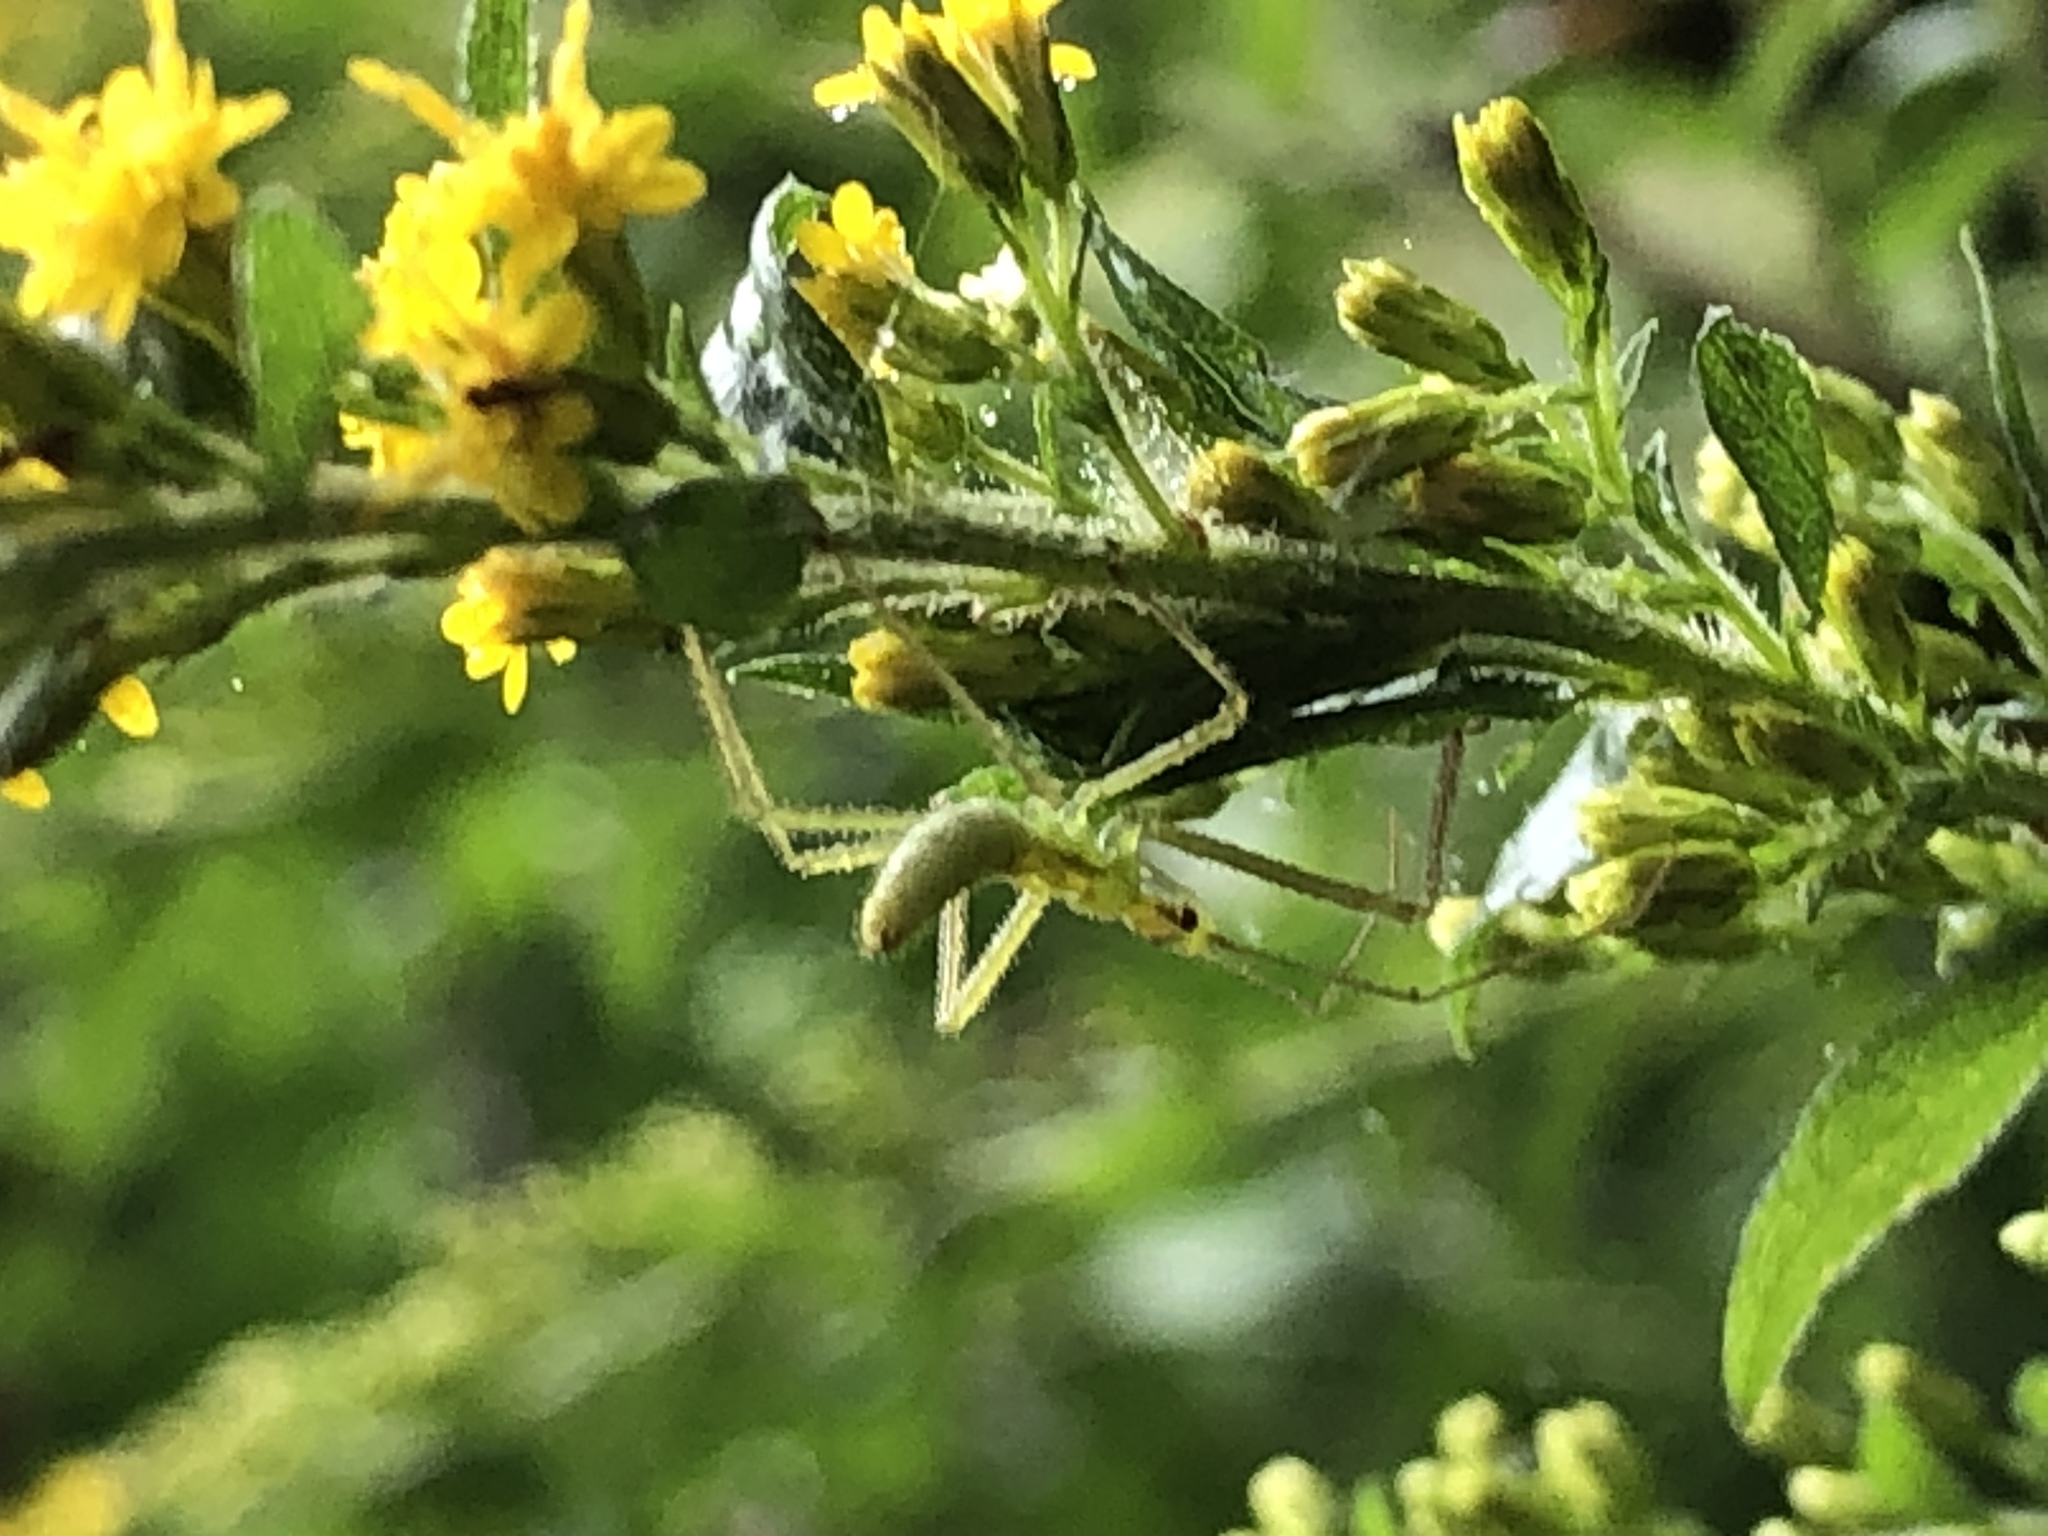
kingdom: Animalia
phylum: Arthropoda
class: Insecta
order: Hemiptera
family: Reduviidae
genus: Zelus
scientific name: Zelus luridus
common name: Pale green assassin bug
